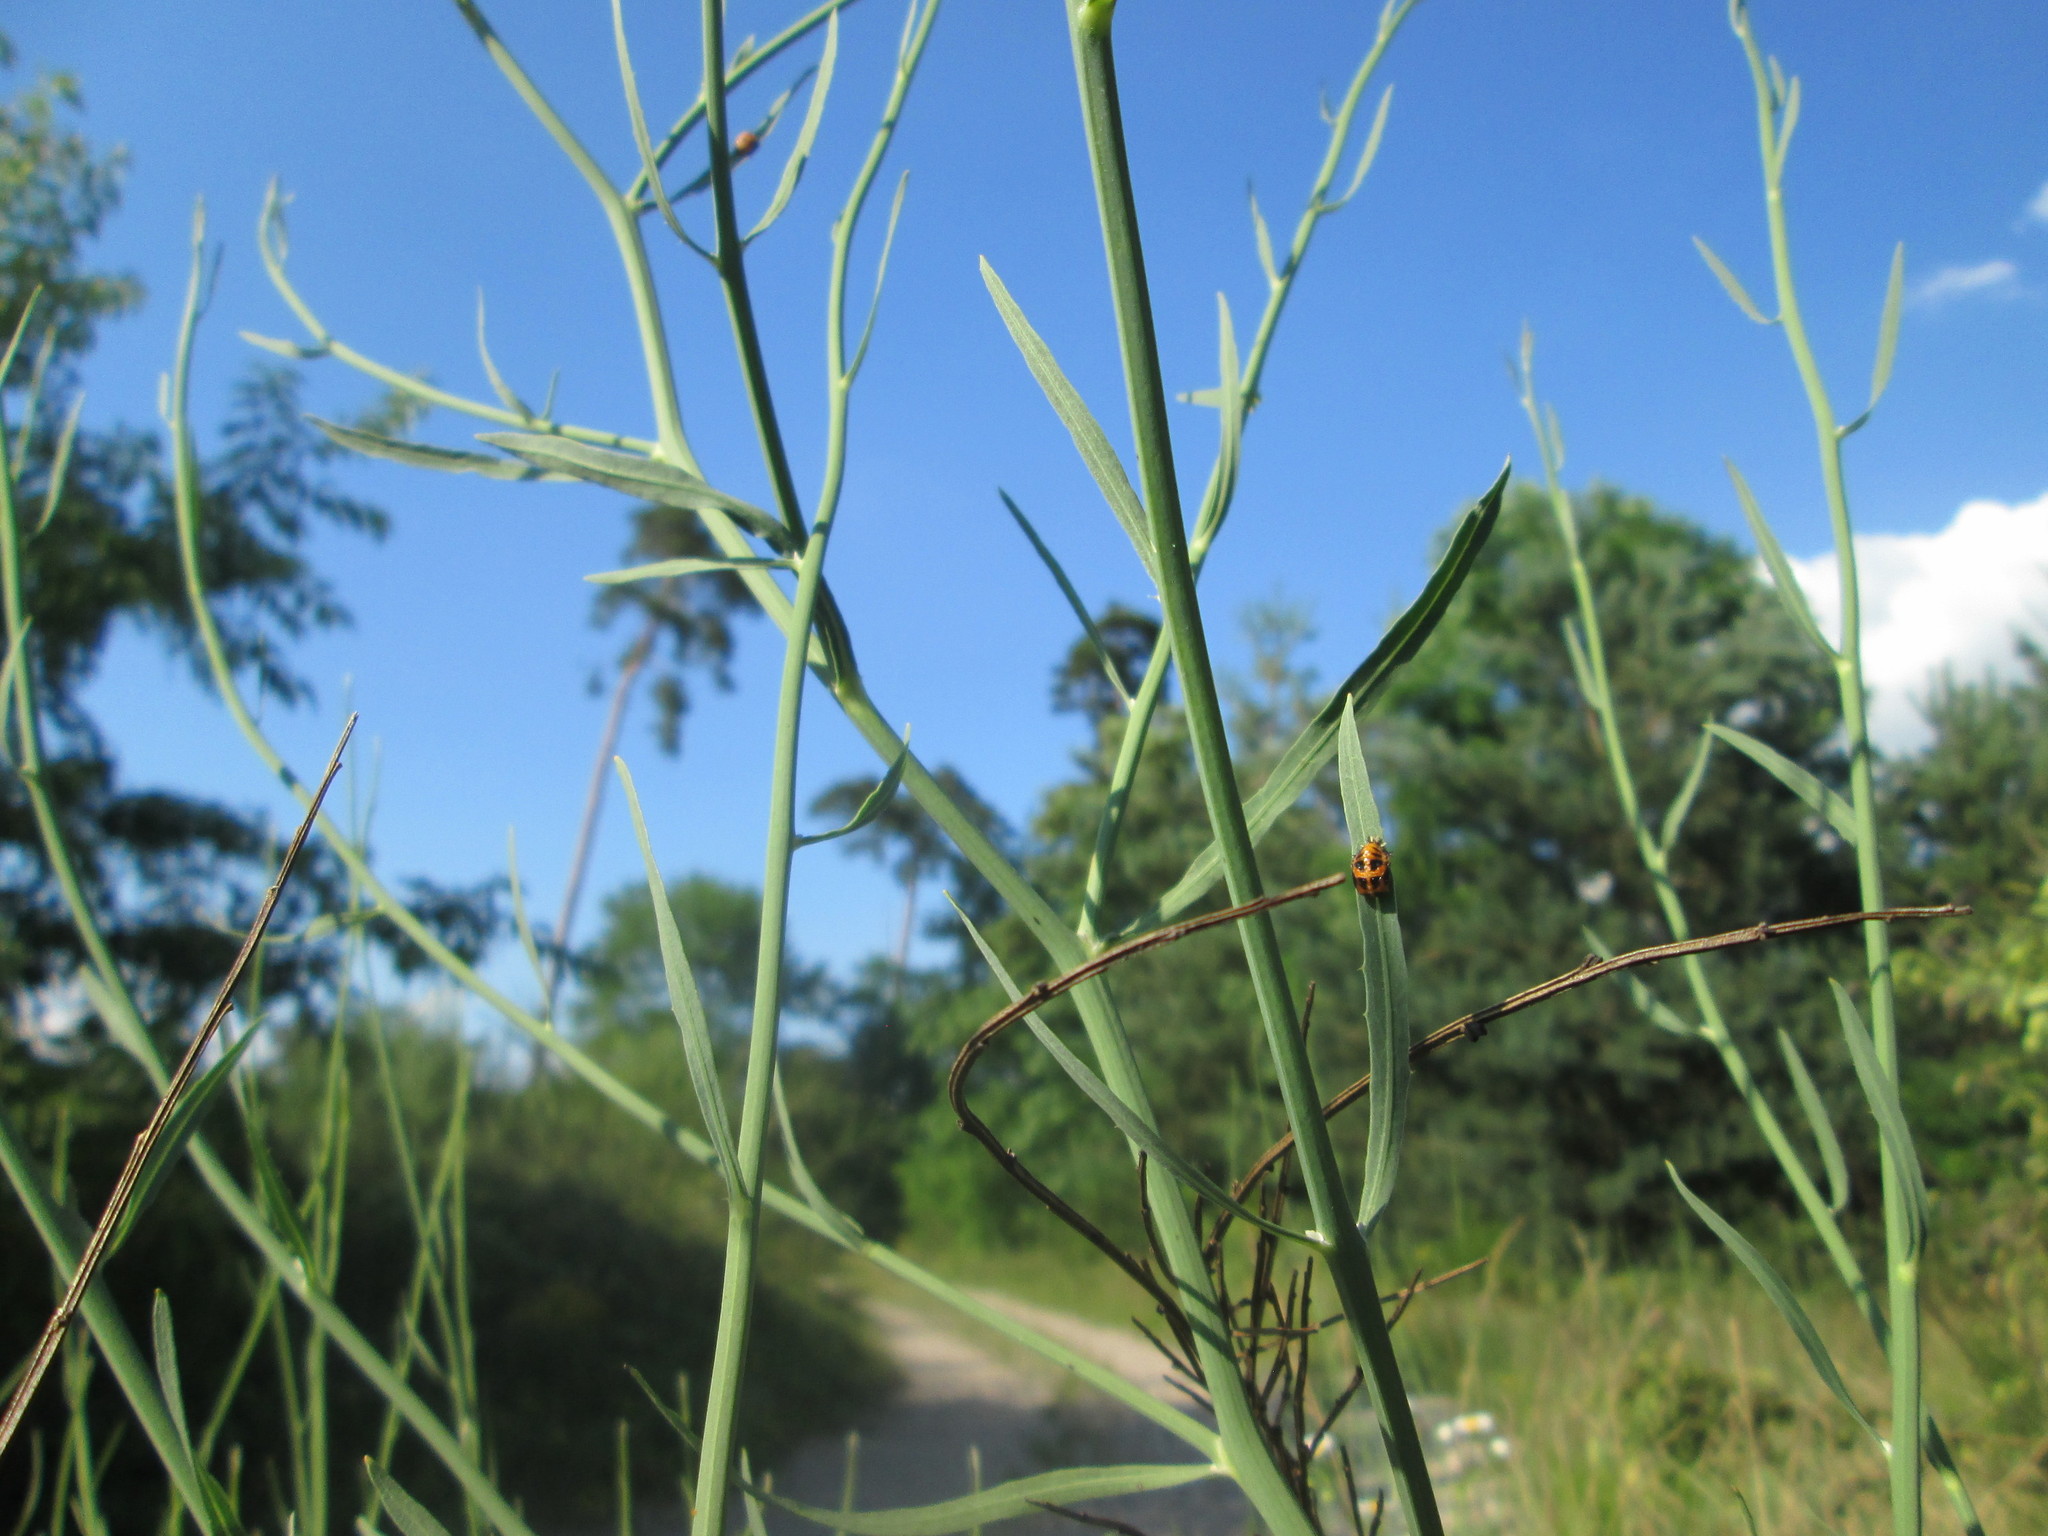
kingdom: Plantae
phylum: Tracheophyta
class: Magnoliopsida
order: Asterales
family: Asteraceae
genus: Chondrilla
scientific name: Chondrilla juncea
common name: Skeleton weed
